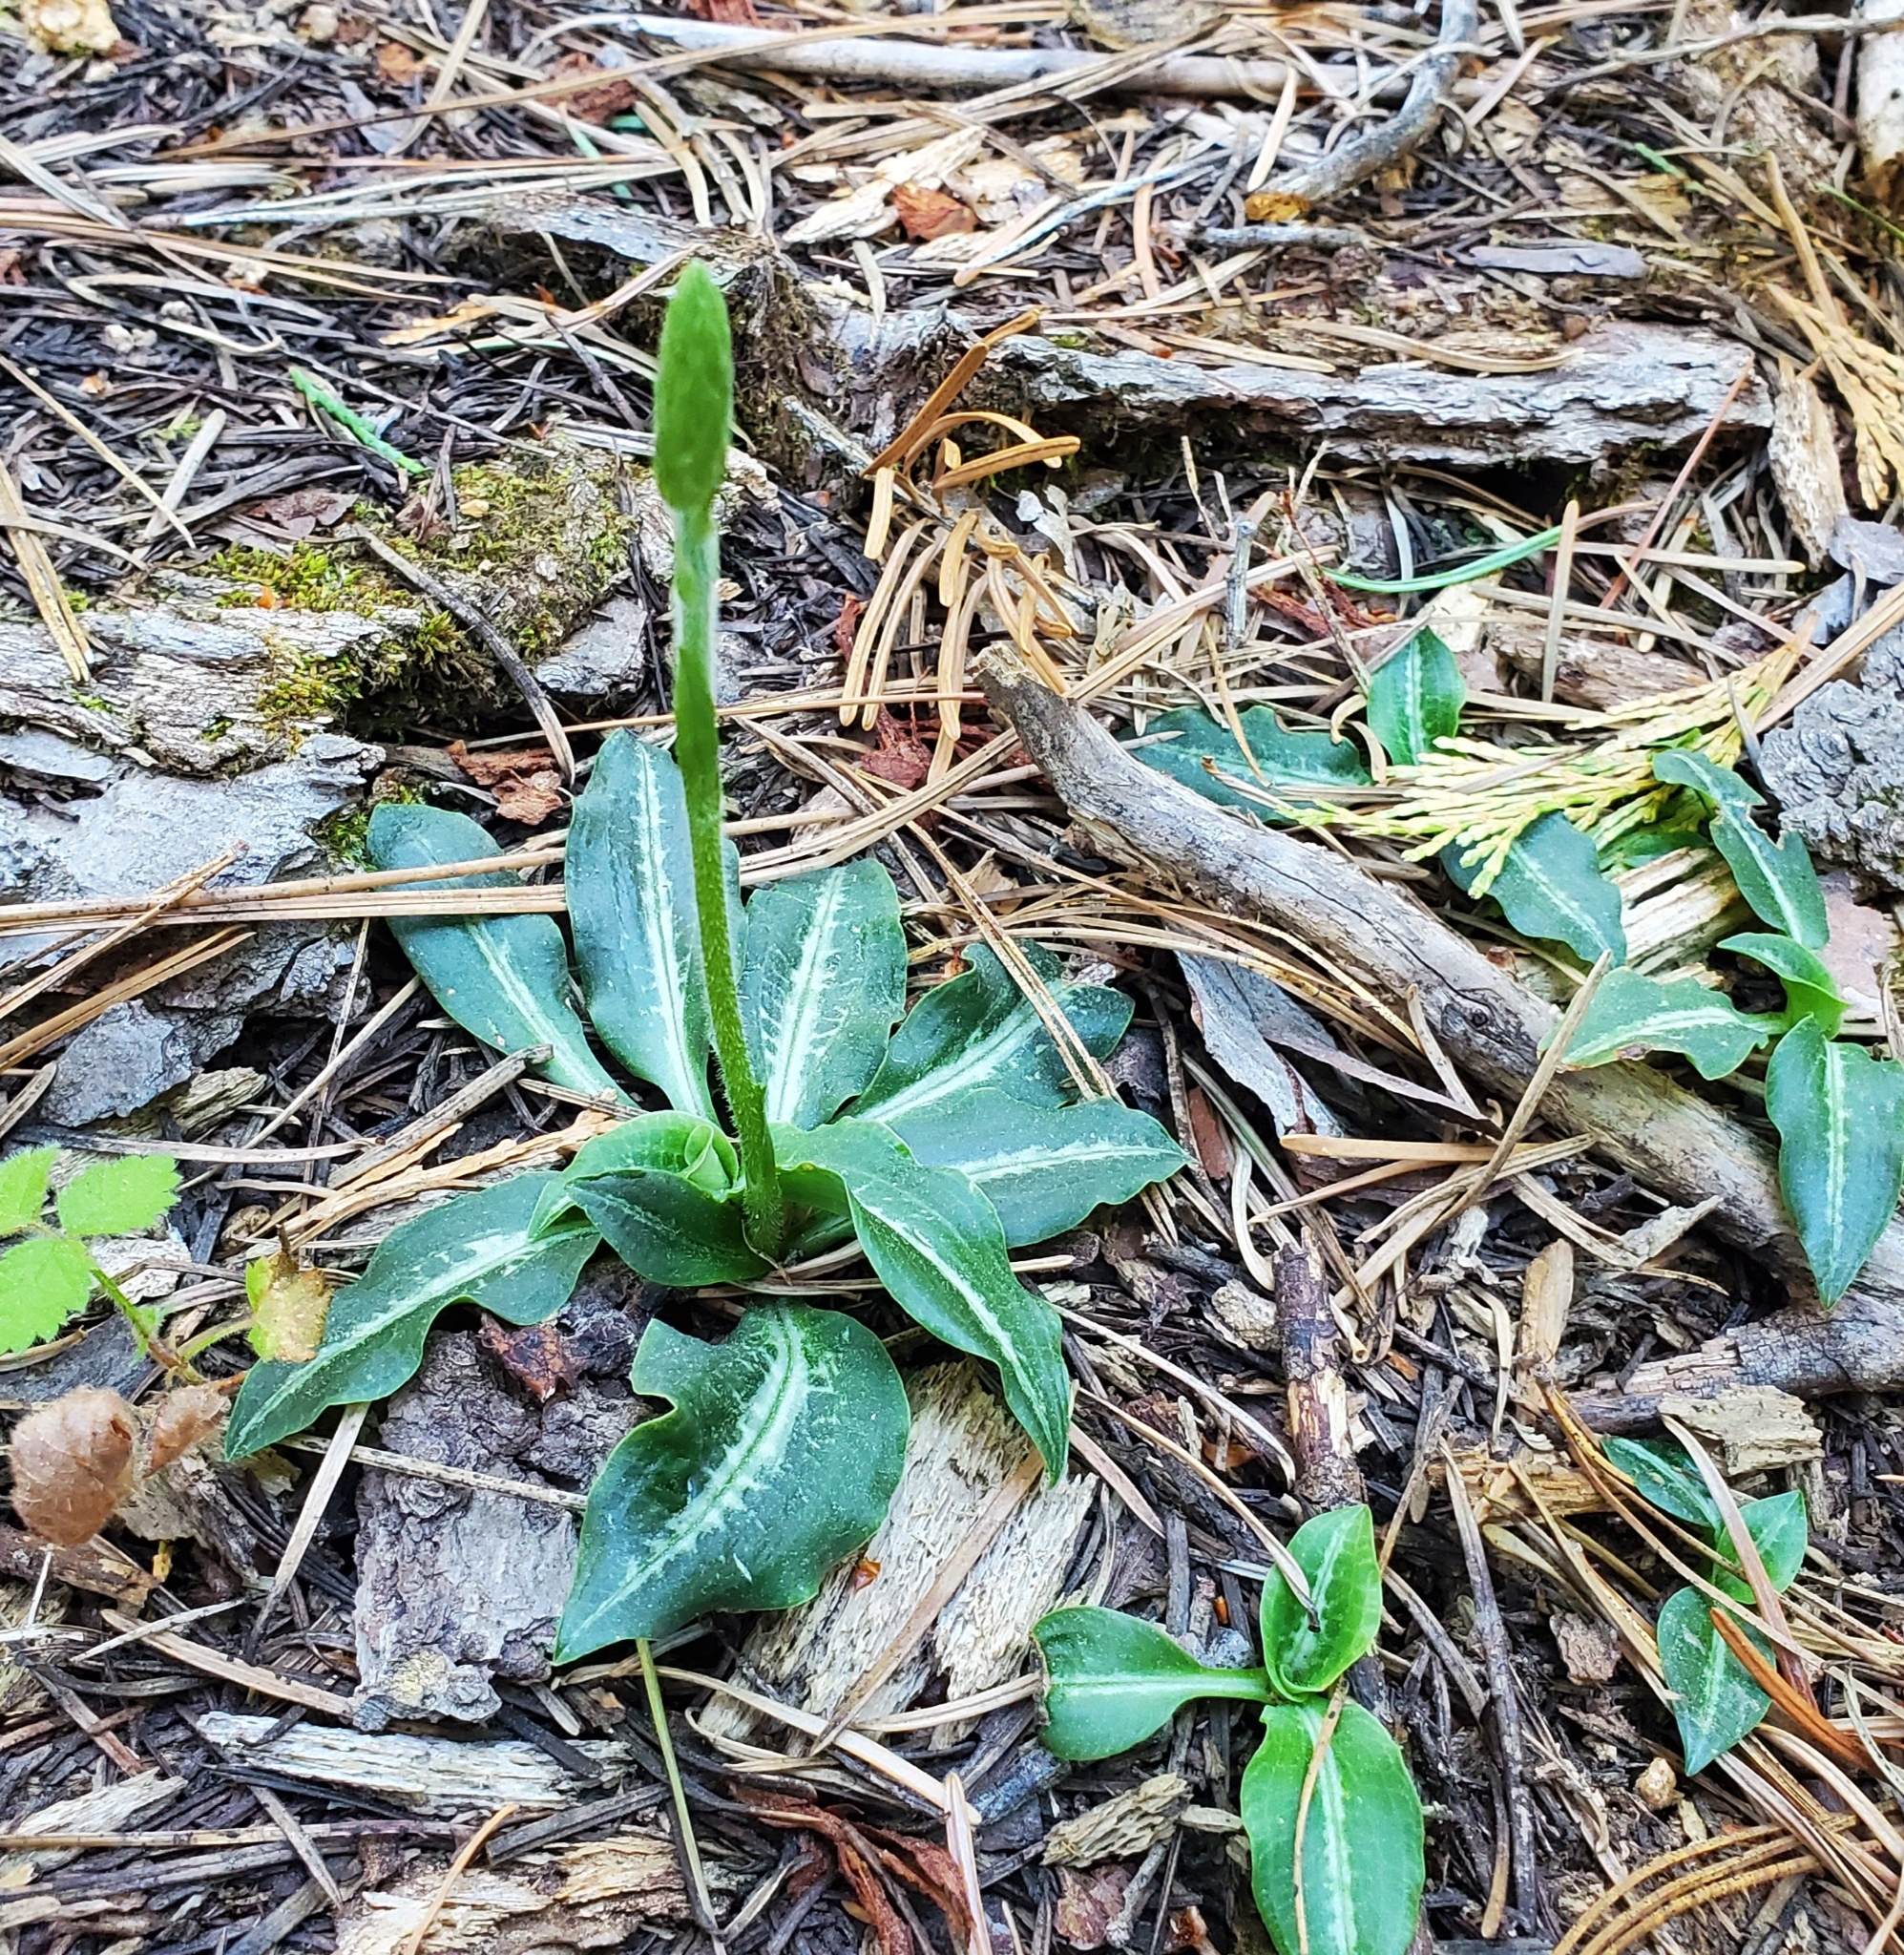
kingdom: Plantae
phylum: Tracheophyta
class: Liliopsida
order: Asparagales
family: Orchidaceae
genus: Goodyera
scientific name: Goodyera oblongifolia
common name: Giant rattlesnake-plantain
